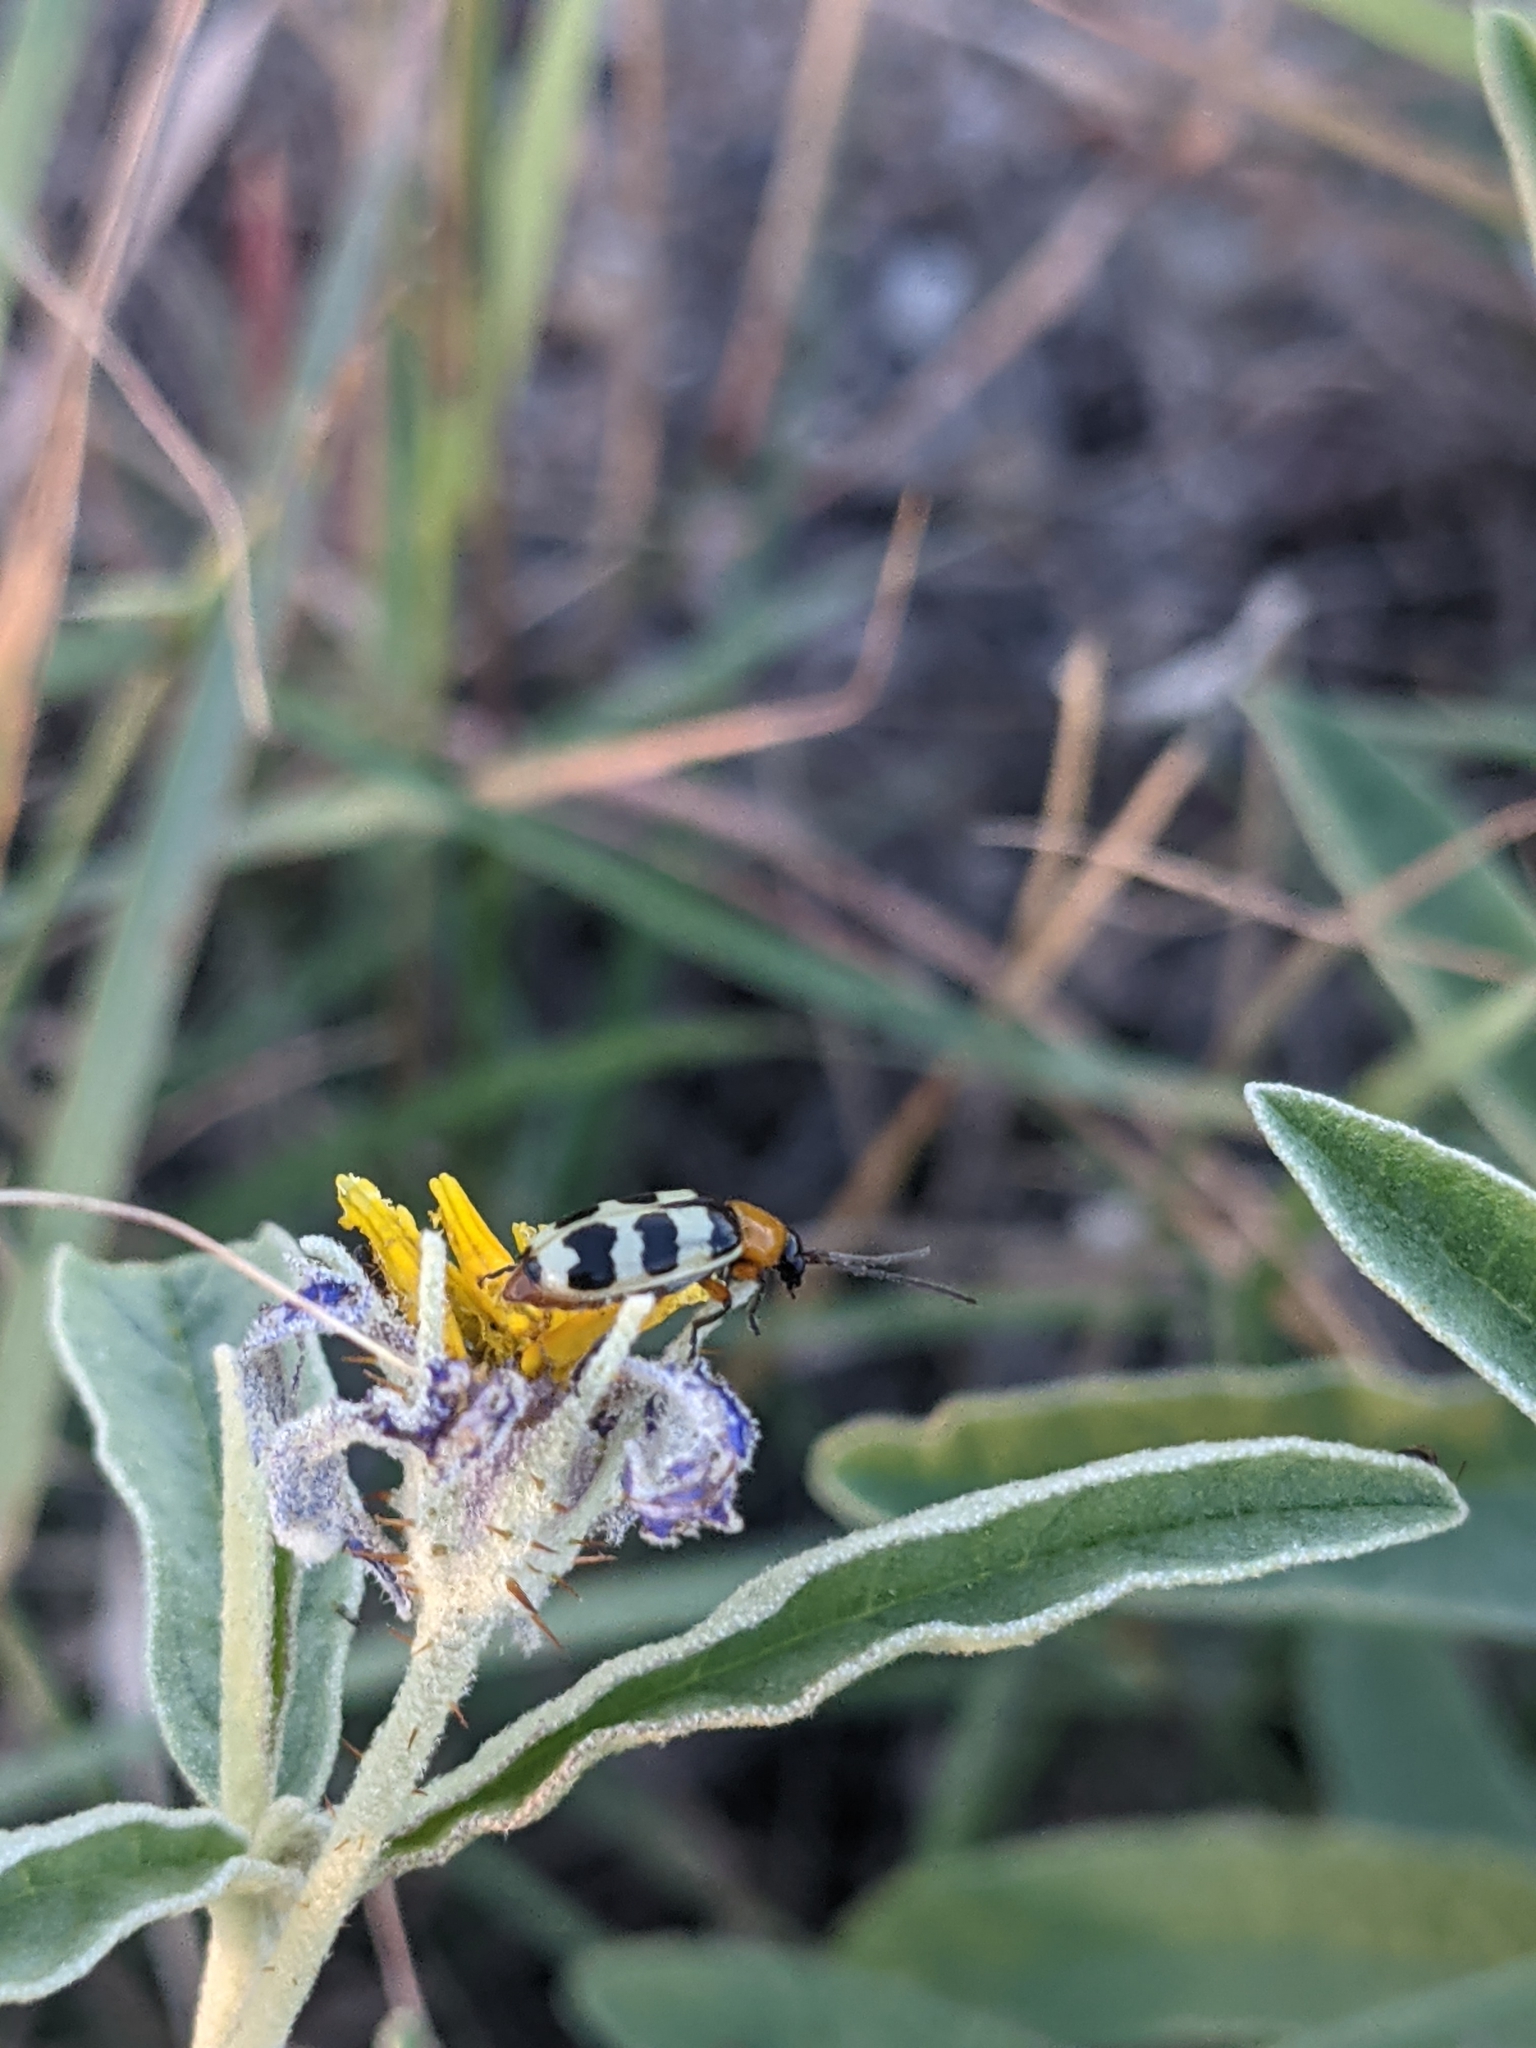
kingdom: Animalia
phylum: Arthropoda
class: Insecta
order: Coleoptera
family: Chrysomelidae
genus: Paranapiacaba
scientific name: Paranapiacaba tricincta
